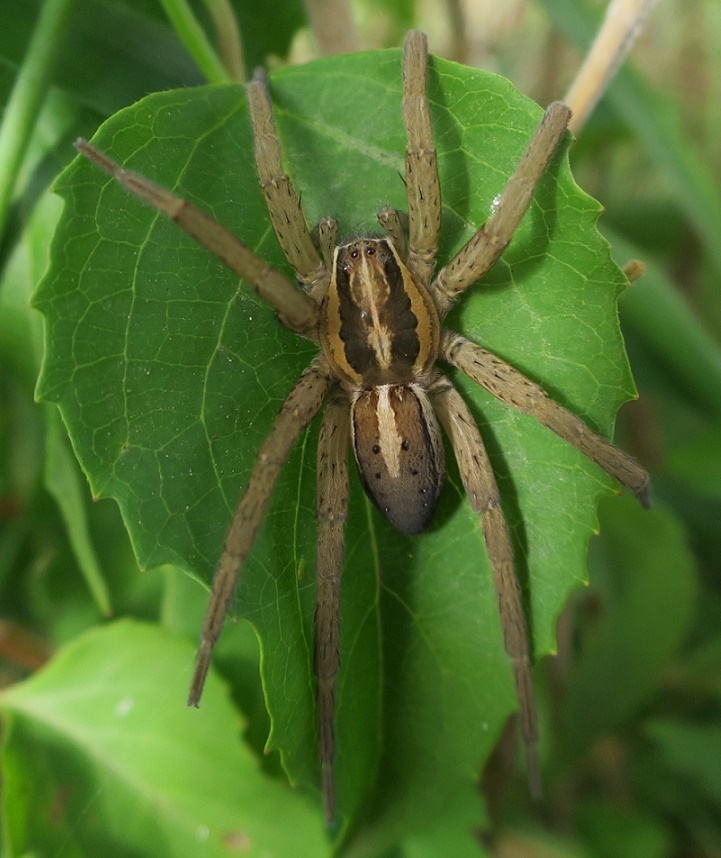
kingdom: Animalia
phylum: Arthropoda
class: Arachnida
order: Araneae
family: Pisauridae
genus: Dolomedes
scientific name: Dolomedes minor
